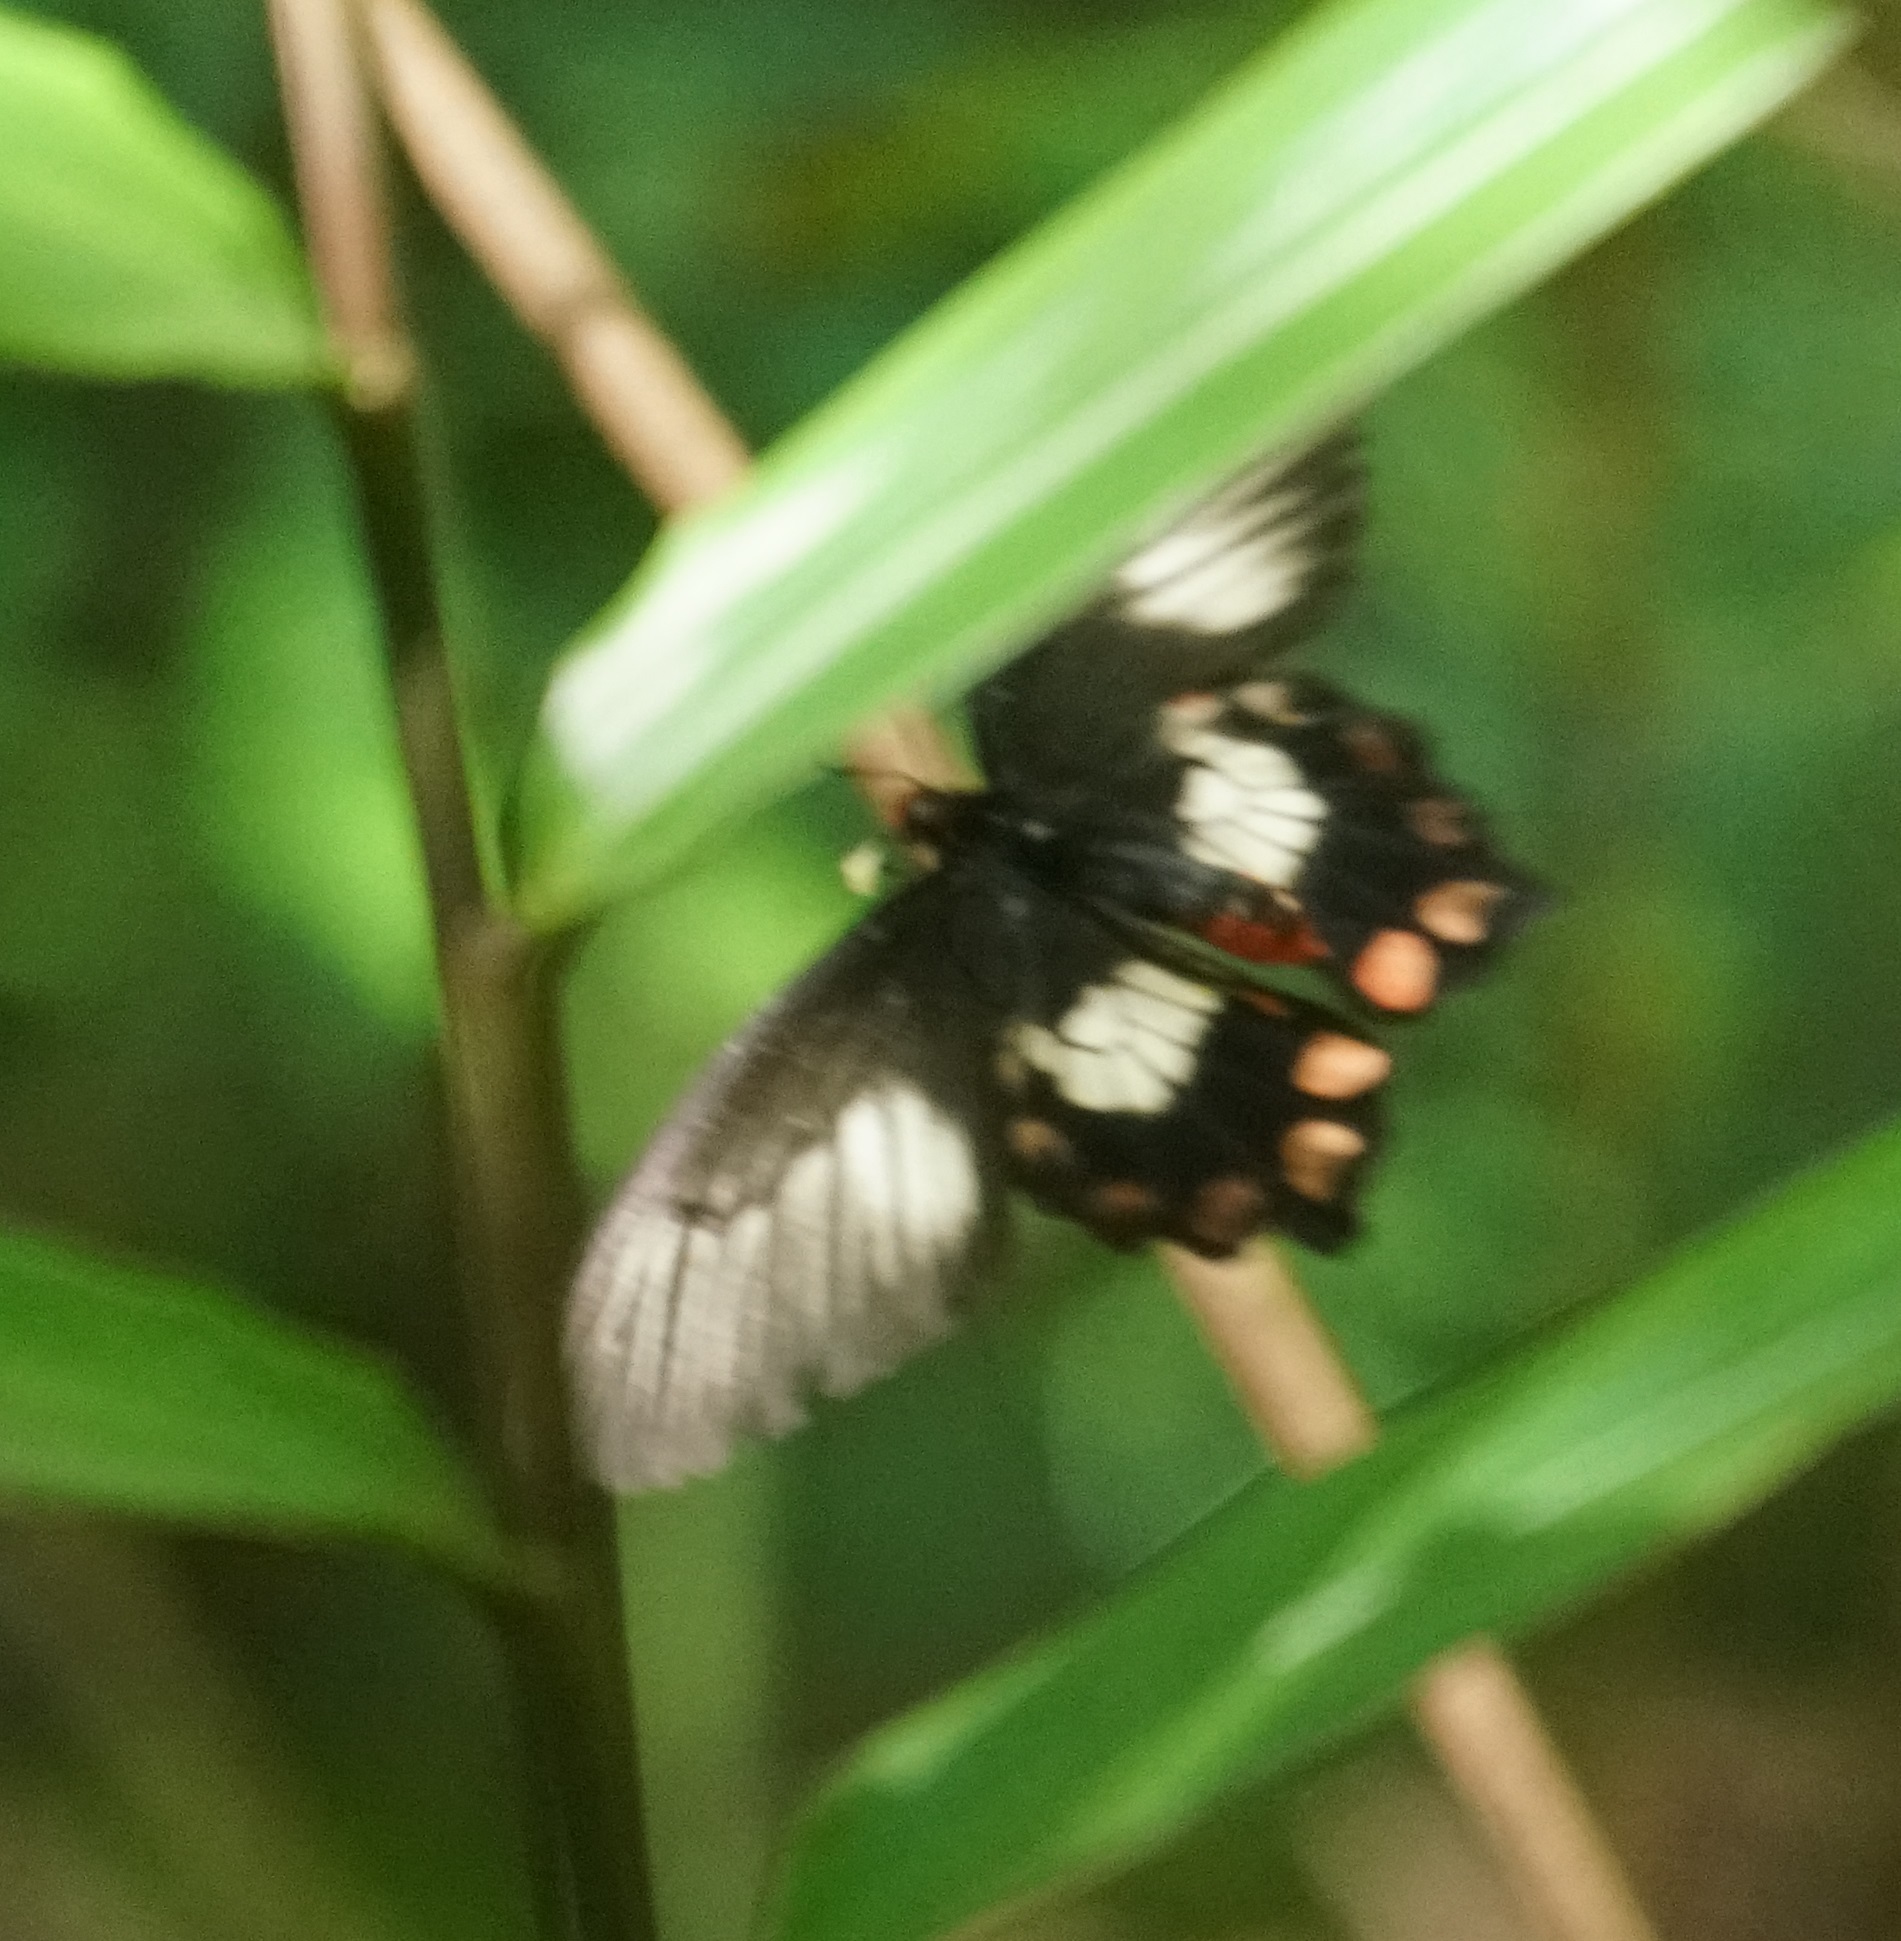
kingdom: Animalia
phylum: Arthropoda
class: Insecta
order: Lepidoptera
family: Papilionidae
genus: Pachliopta
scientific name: Pachliopta polydorus
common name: Red-bodied swallowtail
